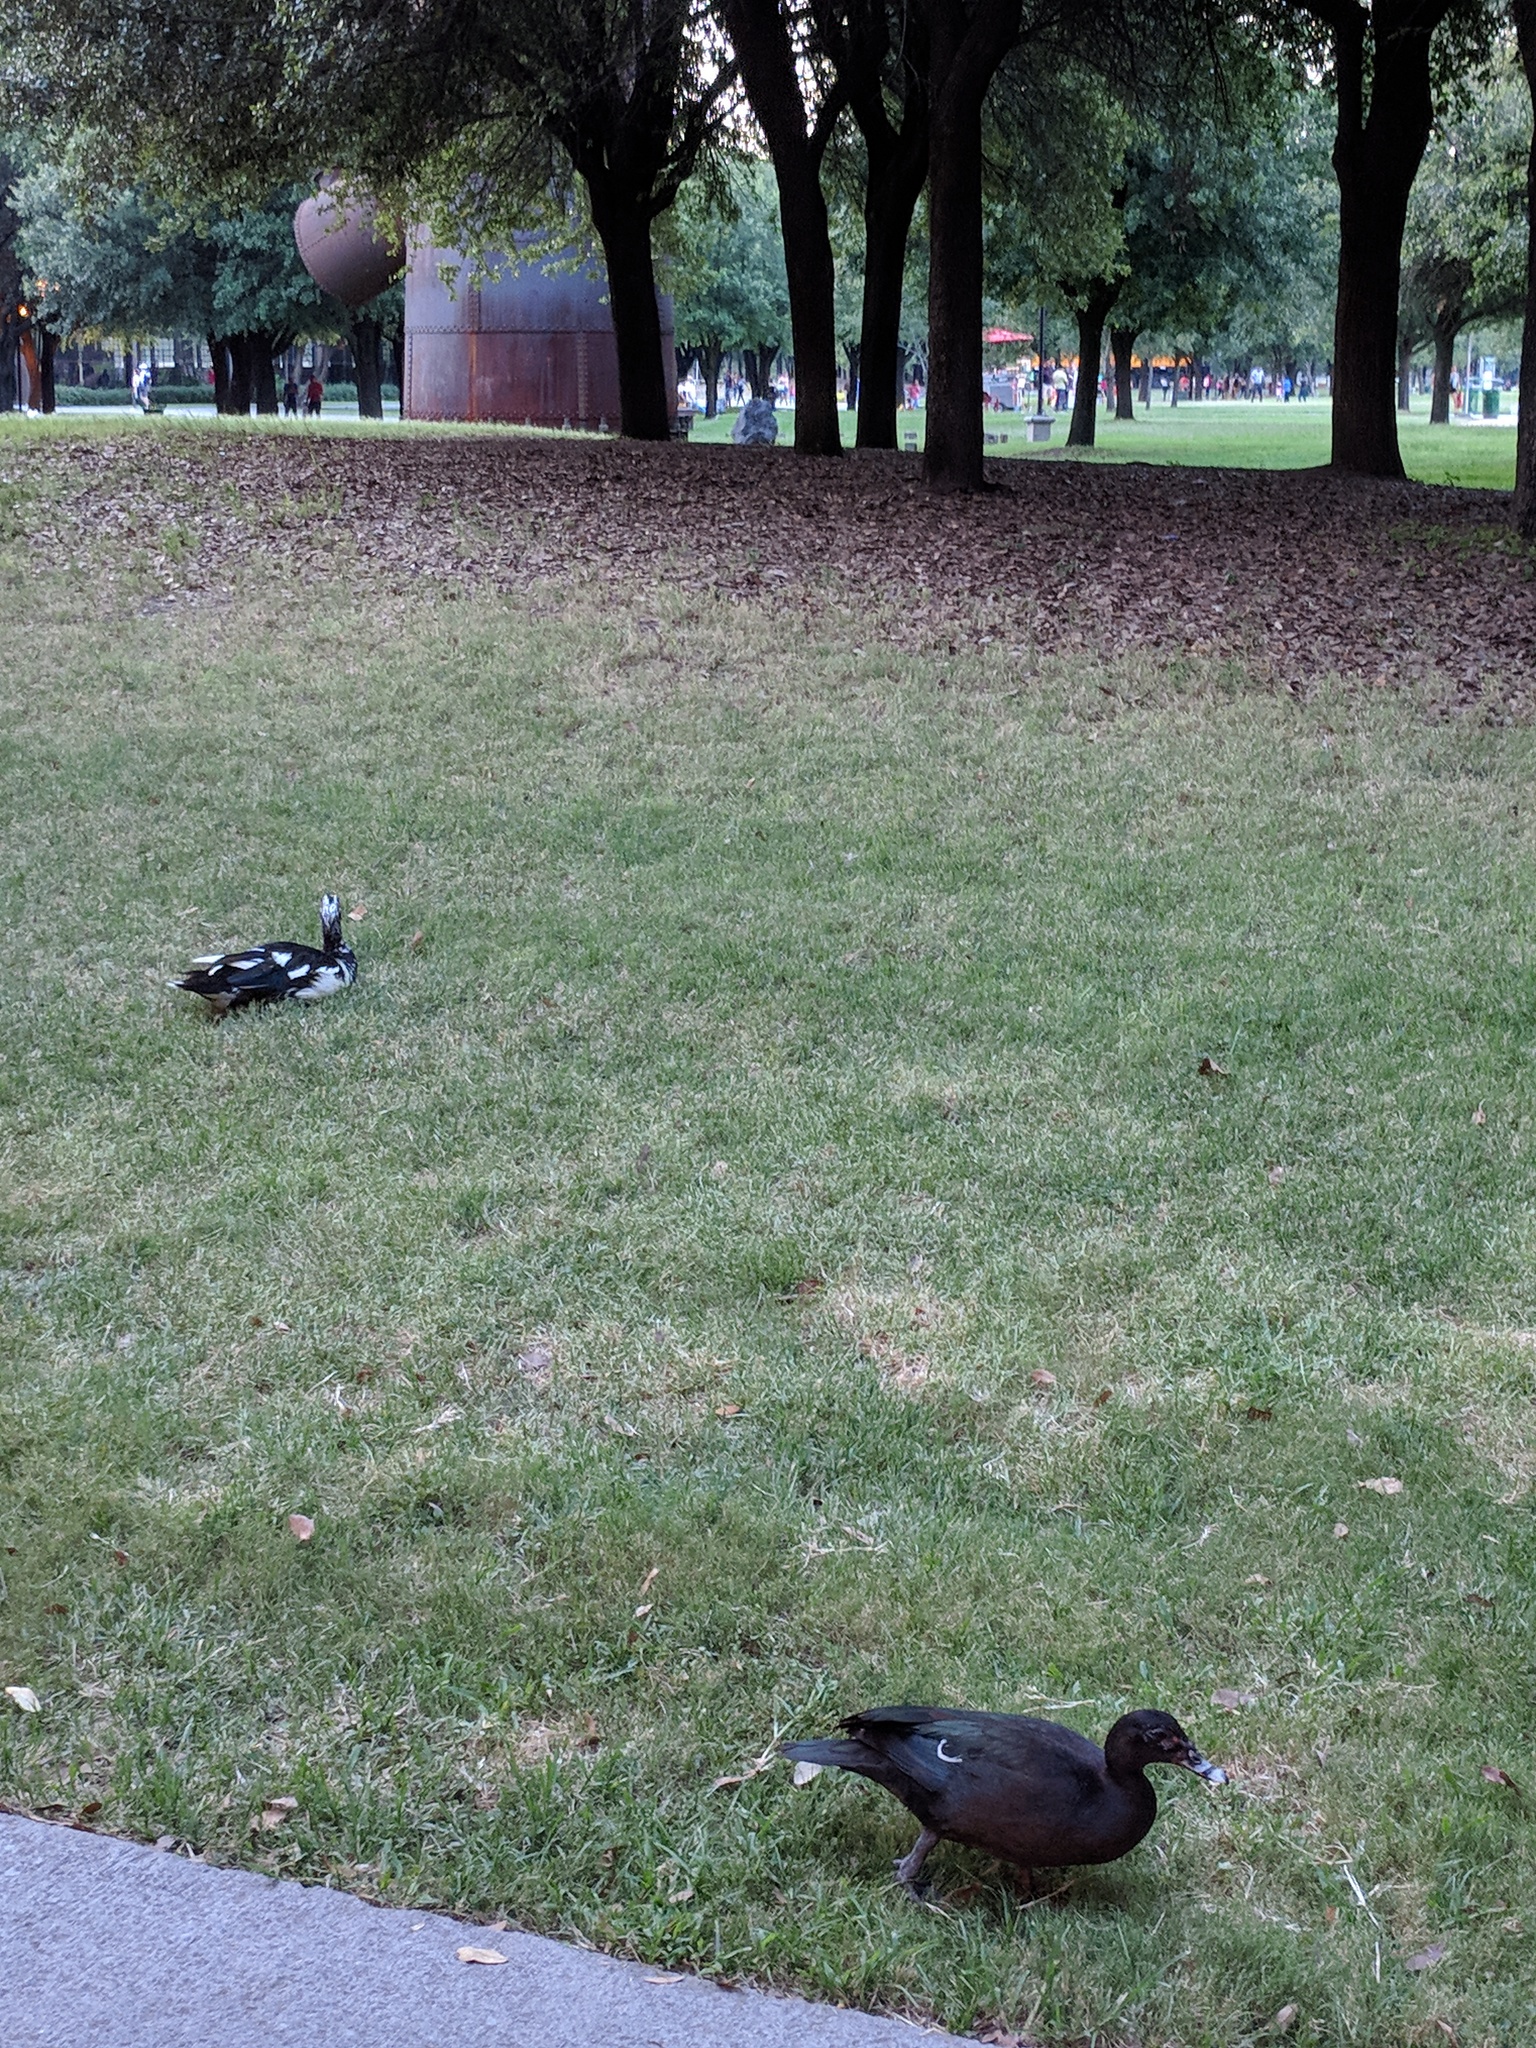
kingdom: Animalia
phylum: Chordata
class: Aves
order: Anseriformes
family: Anatidae
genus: Cairina
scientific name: Cairina moschata
